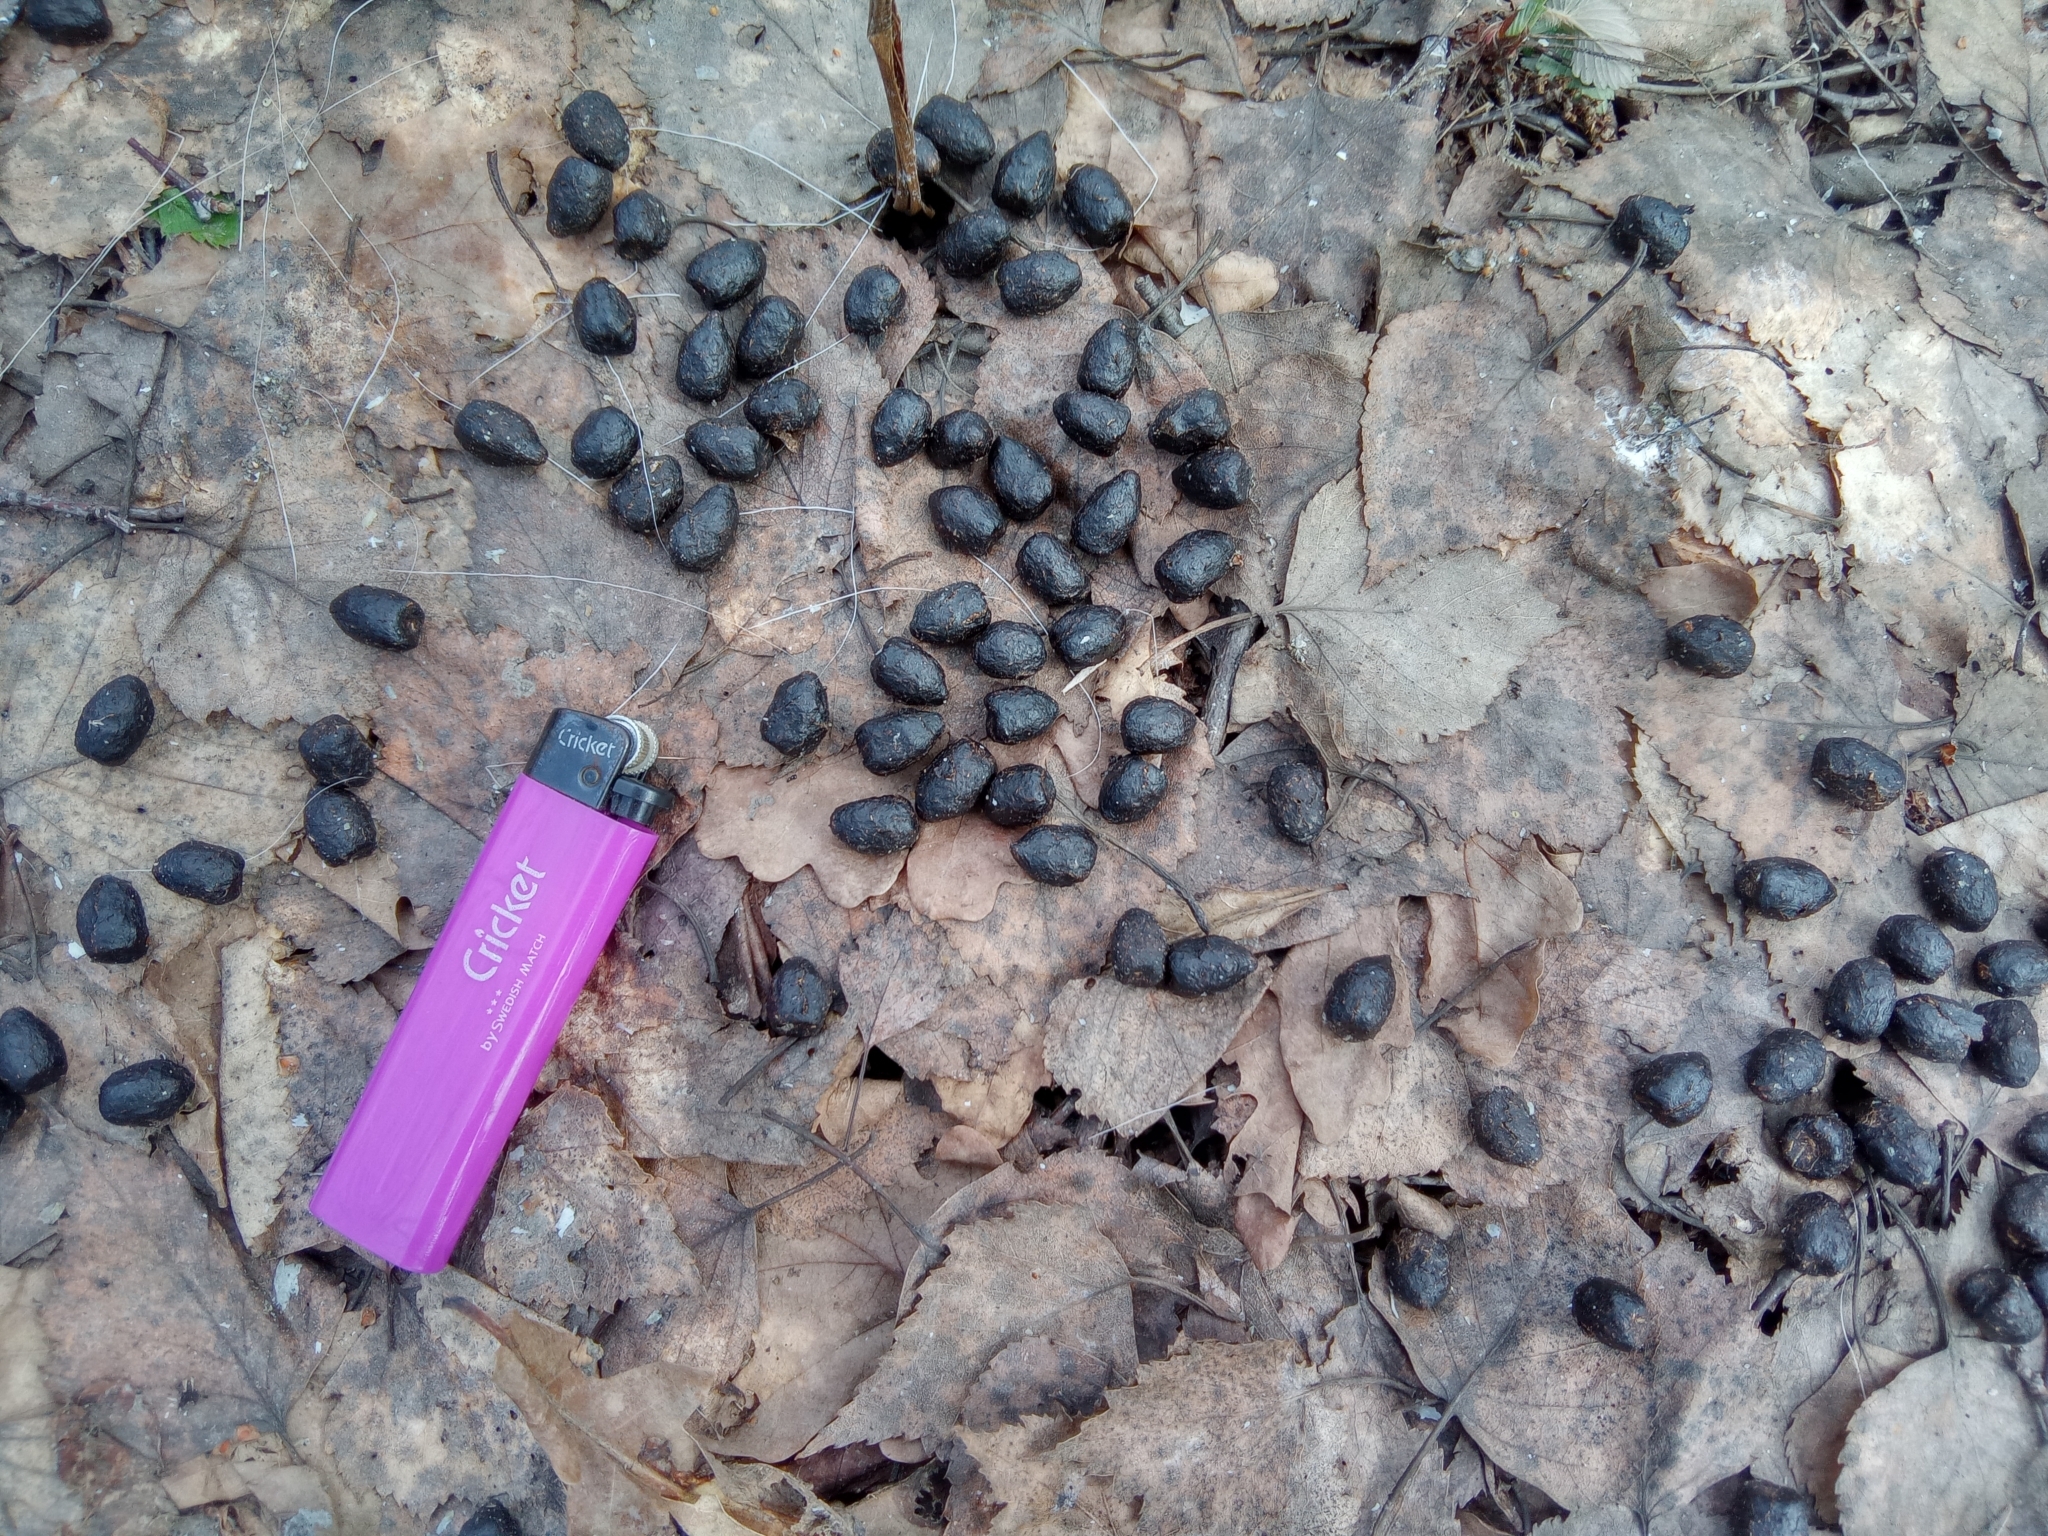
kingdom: Animalia
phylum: Chordata
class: Mammalia
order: Artiodactyla
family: Cervidae
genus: Capreolus
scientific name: Capreolus pygargus
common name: Siberian roe
